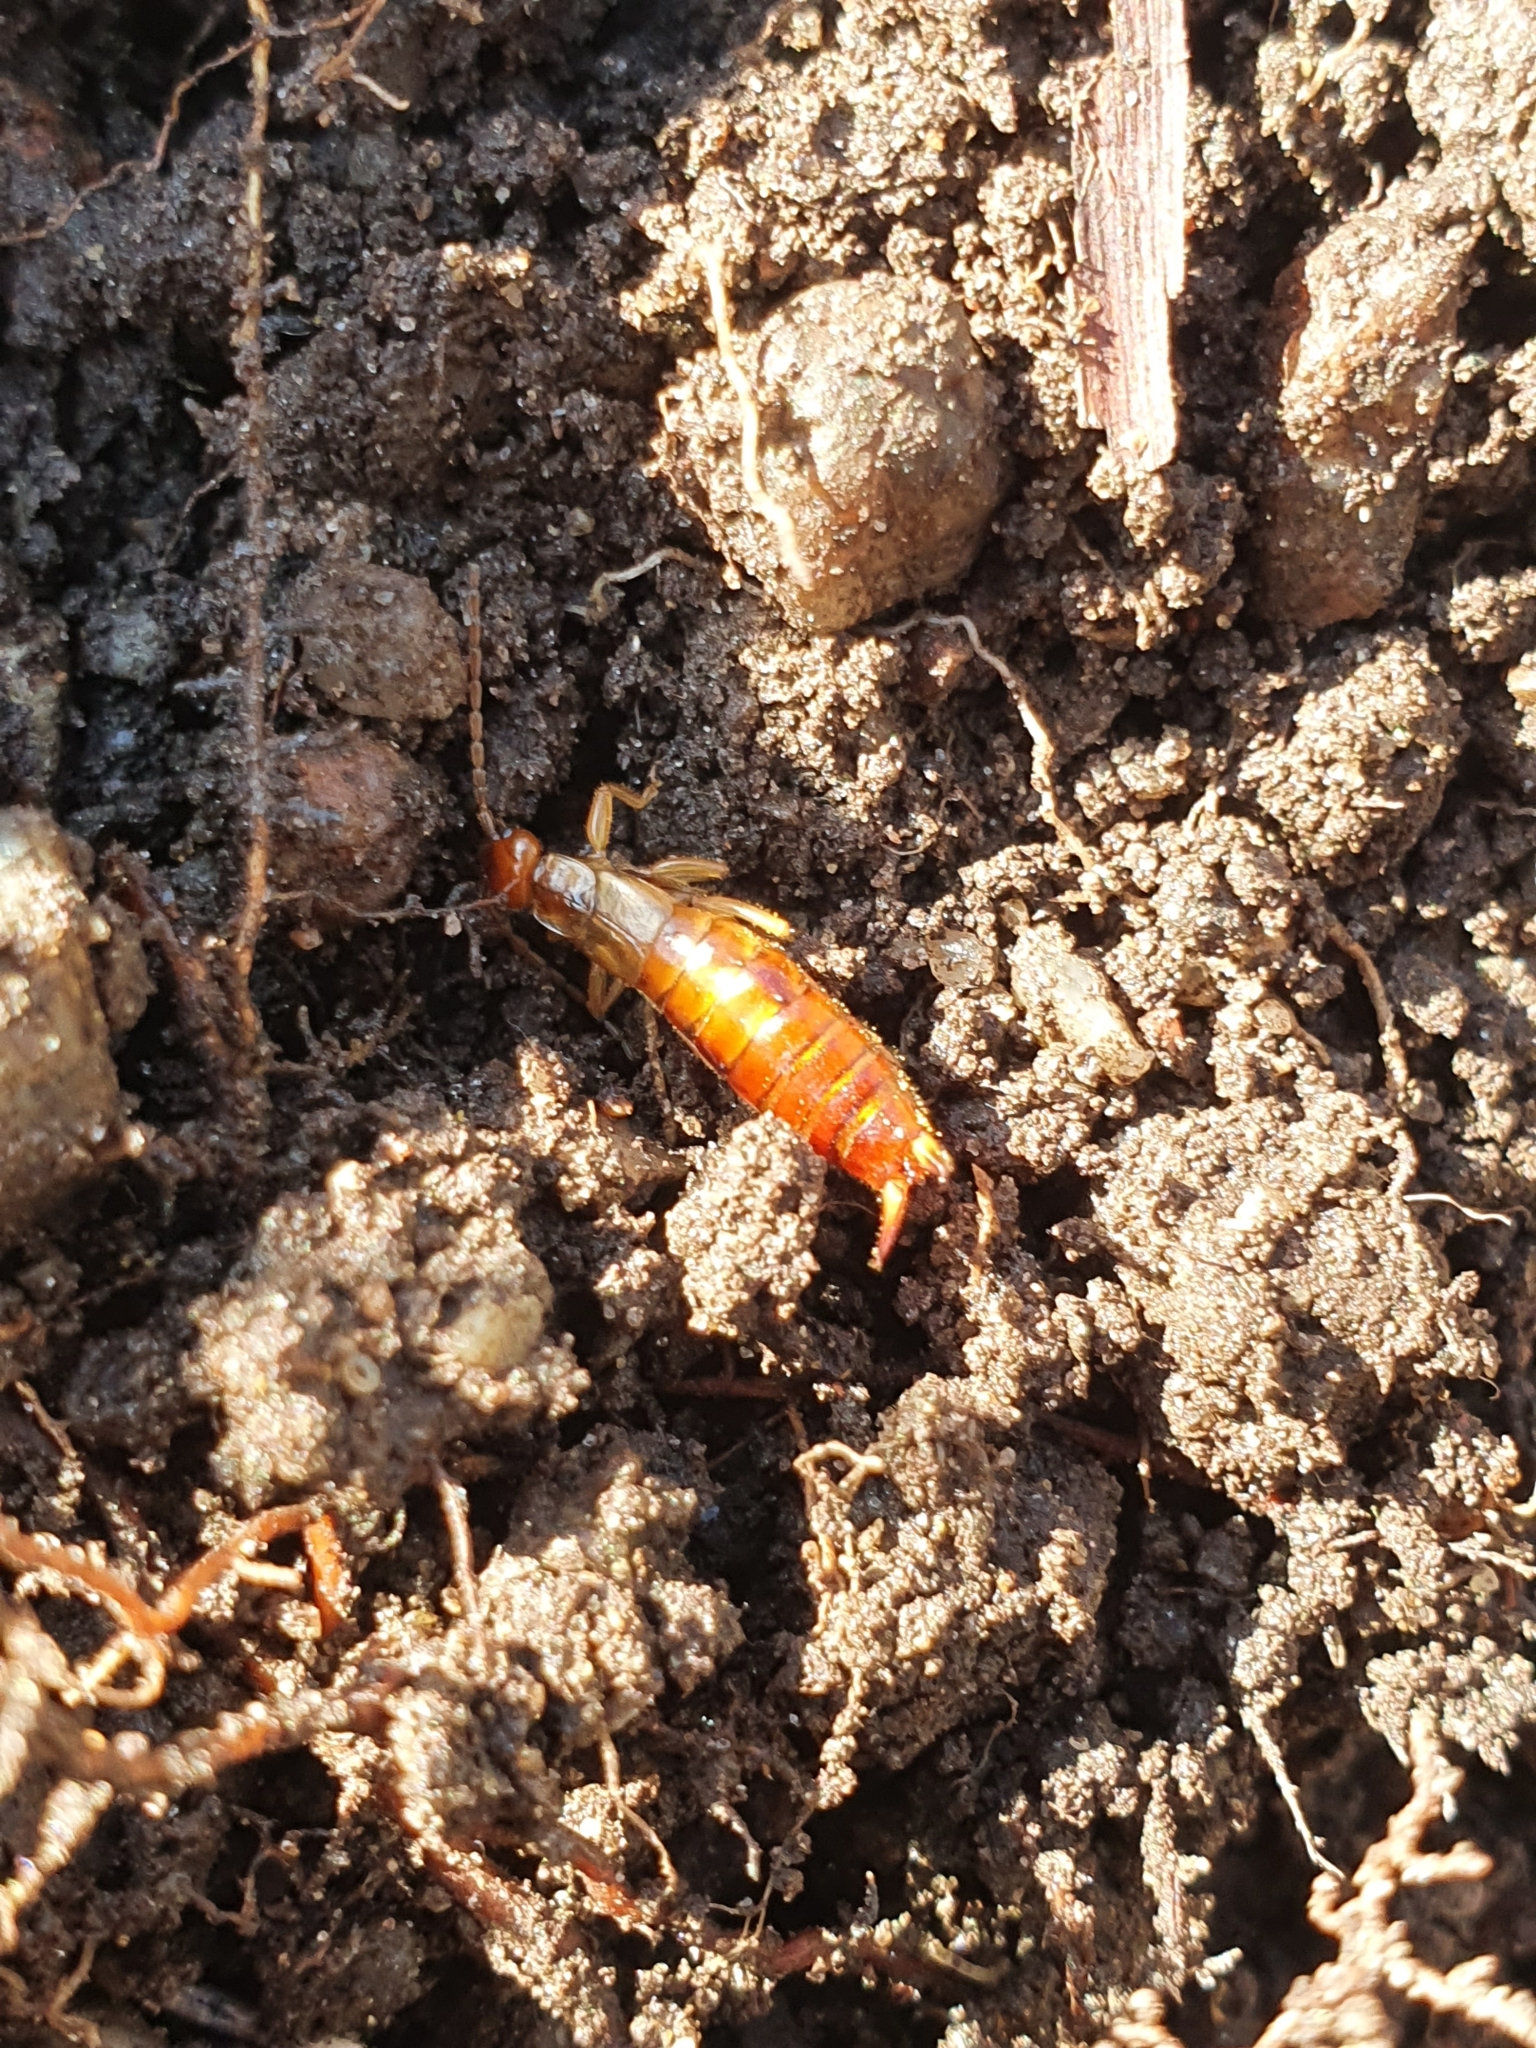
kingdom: Animalia
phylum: Arthropoda
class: Insecta
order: Dermaptera
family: Forficulidae
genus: Apterygida
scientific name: Apterygida albipennis
